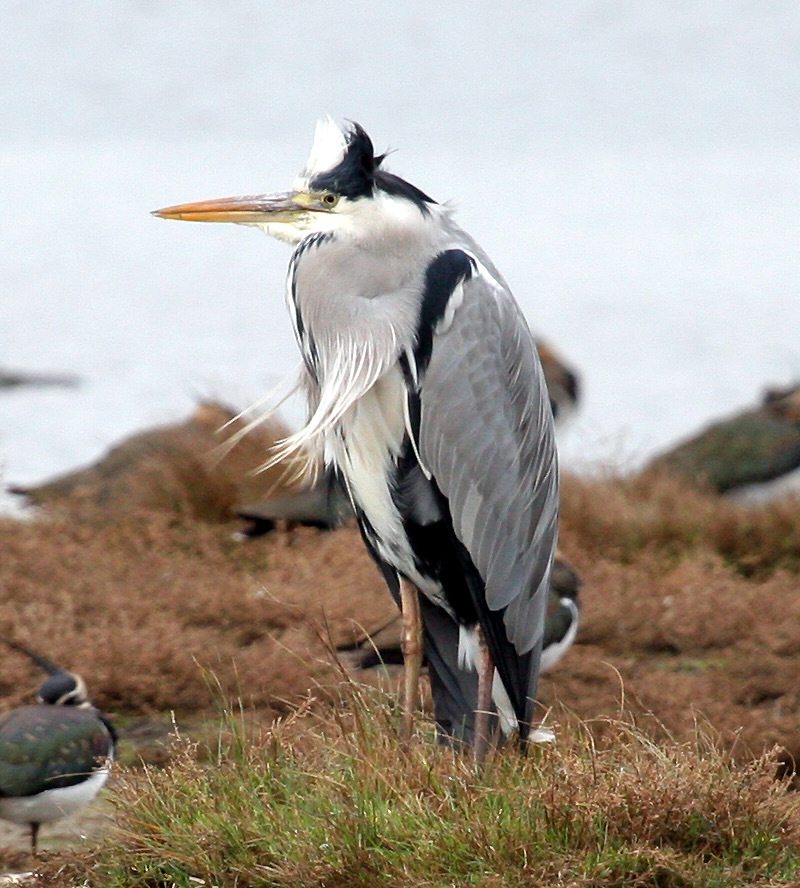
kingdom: Animalia
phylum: Chordata
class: Aves
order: Pelecaniformes
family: Ardeidae
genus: Ardea
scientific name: Ardea cinerea
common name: Grey heron
